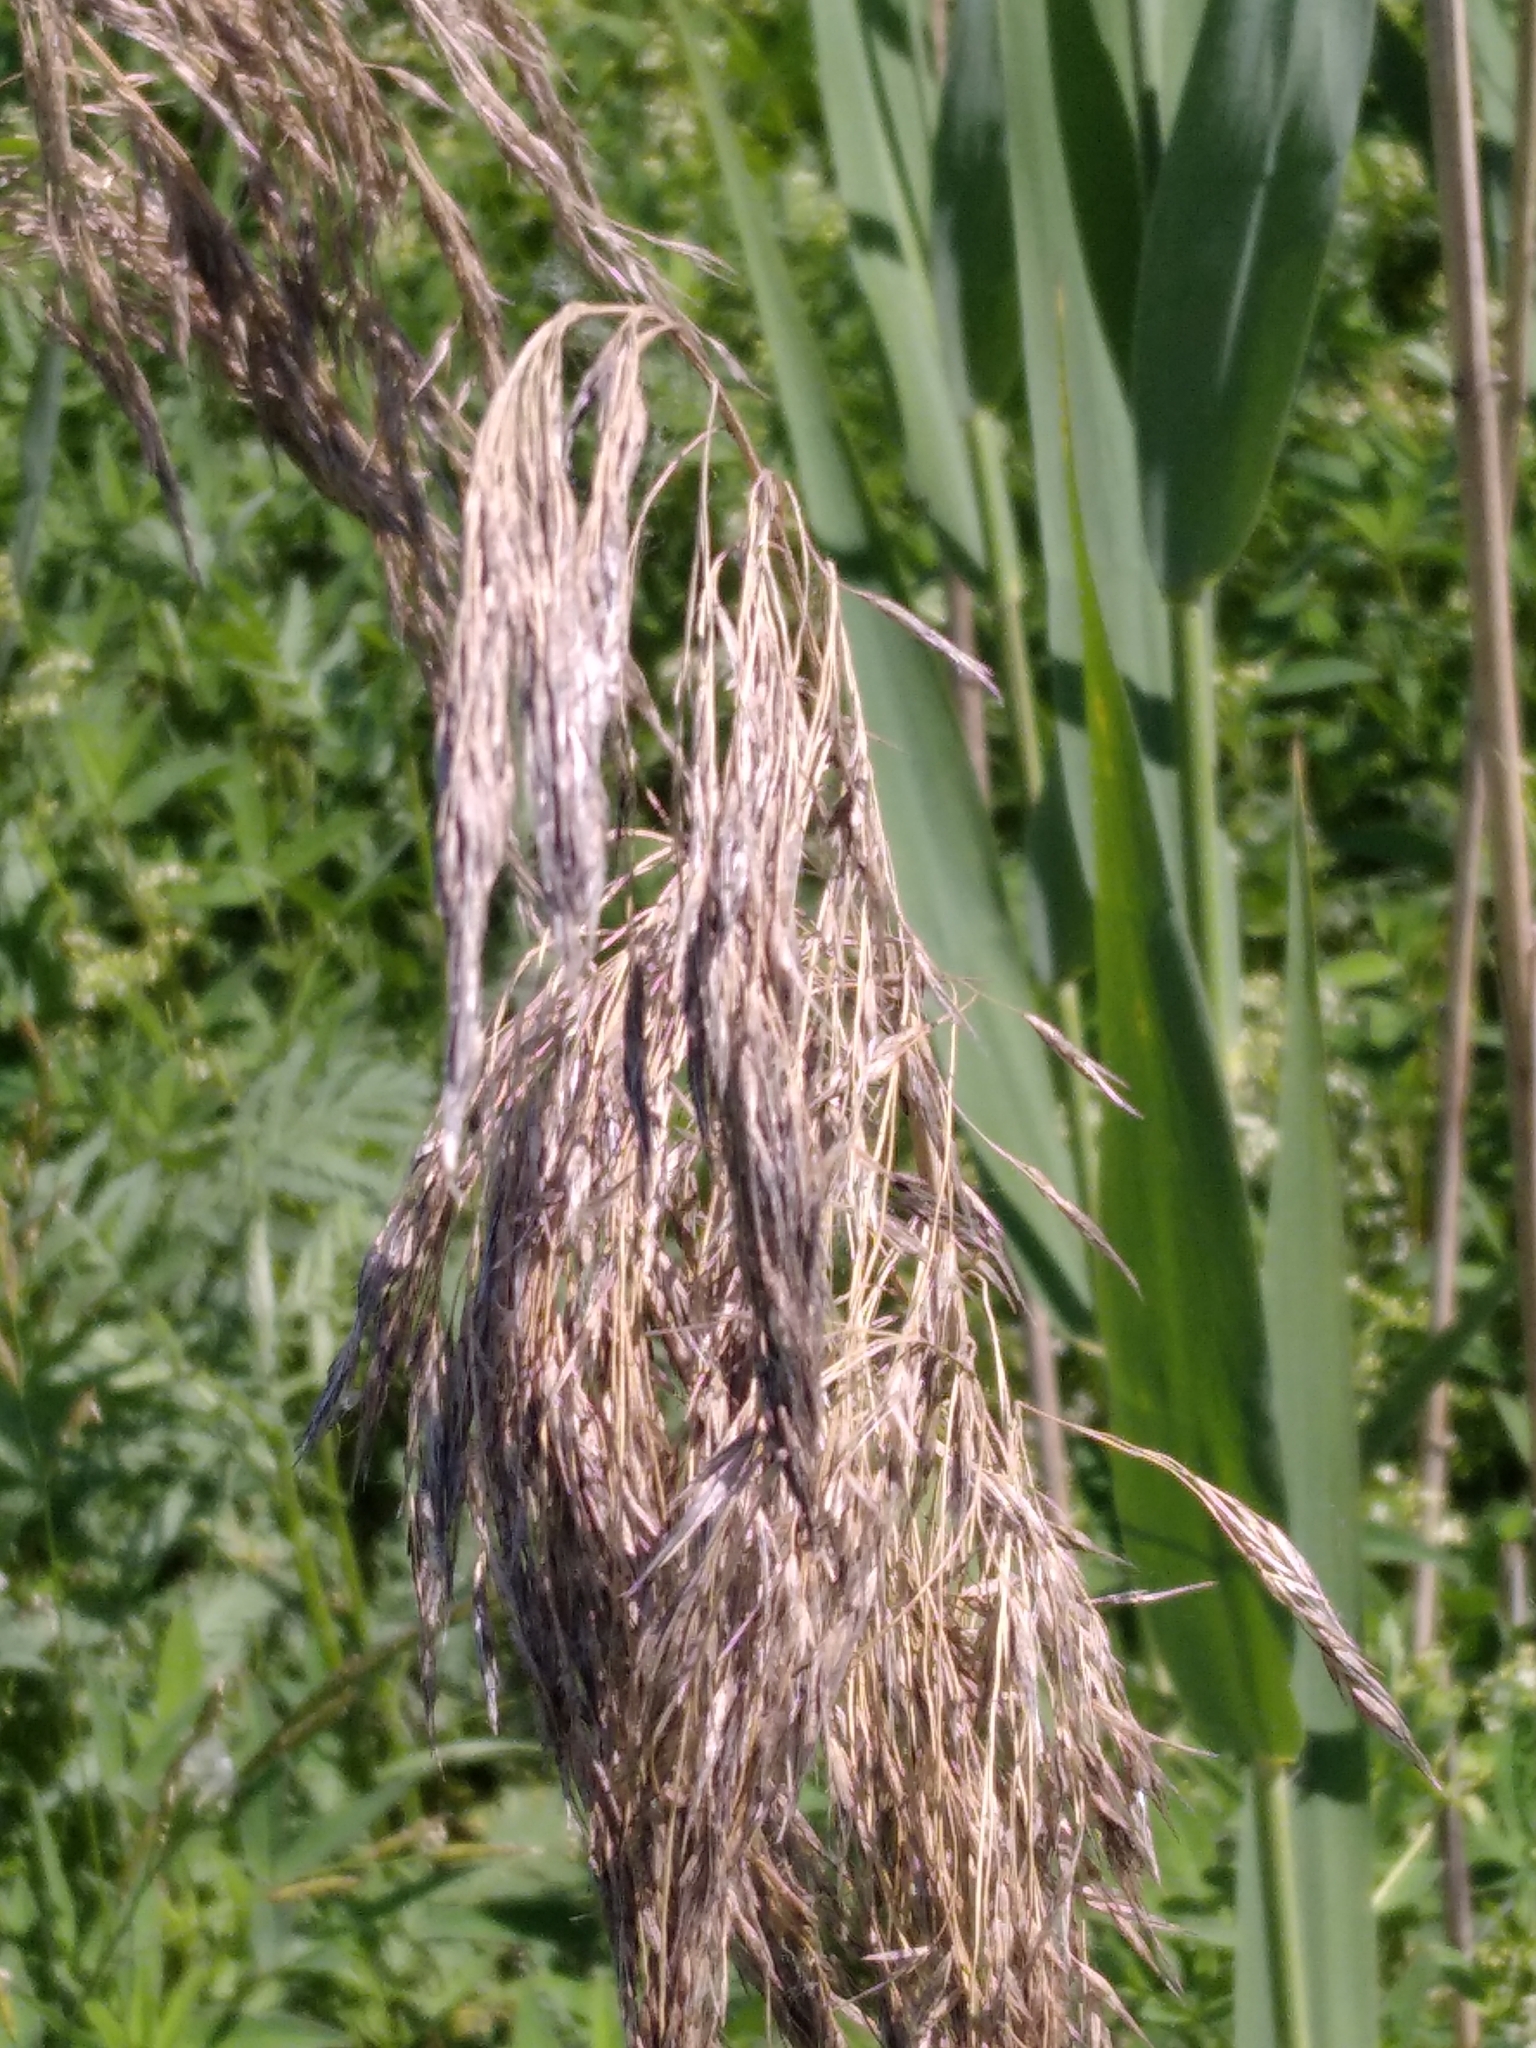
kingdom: Plantae
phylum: Tracheophyta
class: Liliopsida
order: Poales
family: Poaceae
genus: Phragmites
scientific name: Phragmites australis
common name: Common reed
